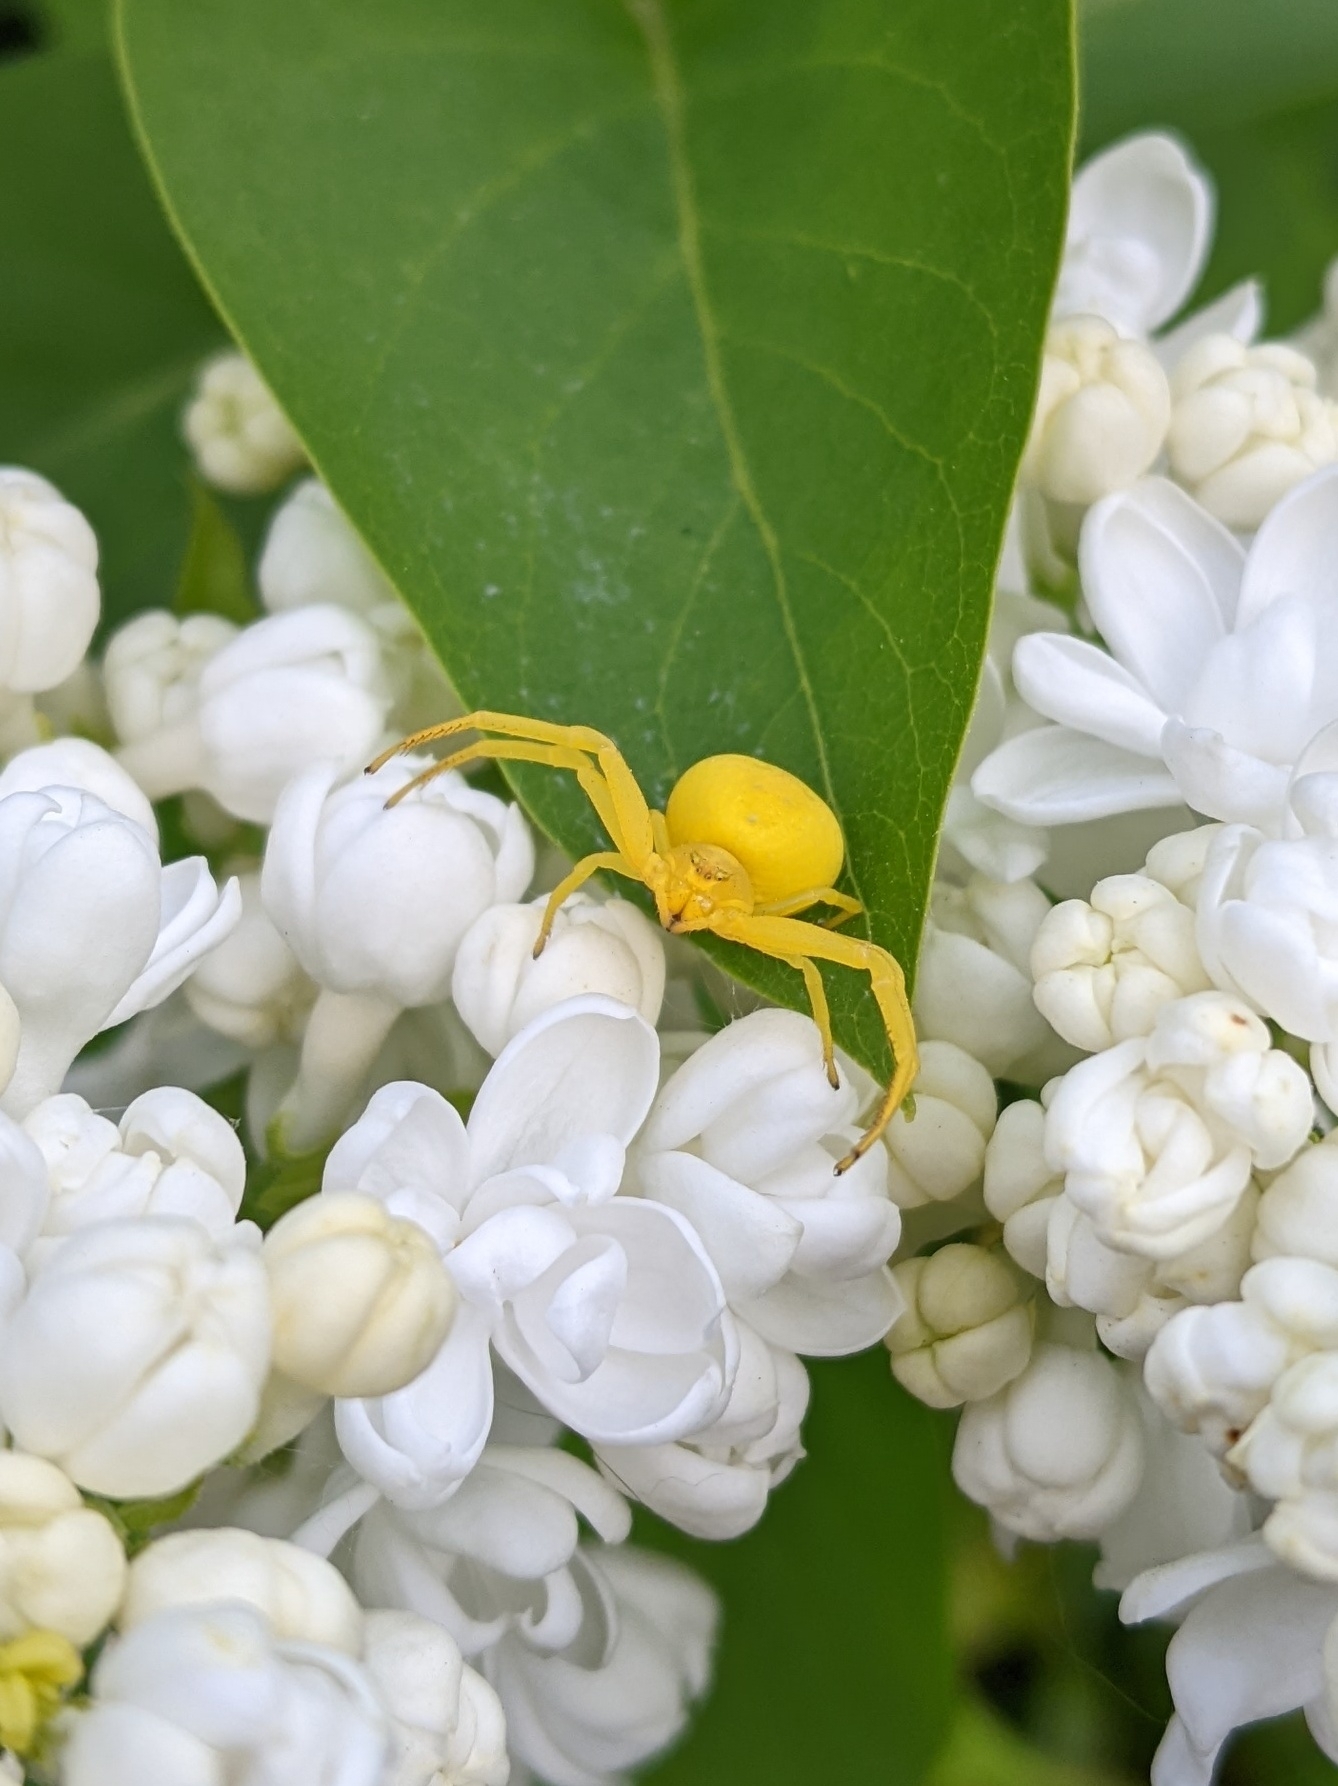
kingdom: Animalia
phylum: Arthropoda
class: Arachnida
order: Araneae
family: Thomisidae
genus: Misumena
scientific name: Misumena vatia
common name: Goldenrod crab spider
